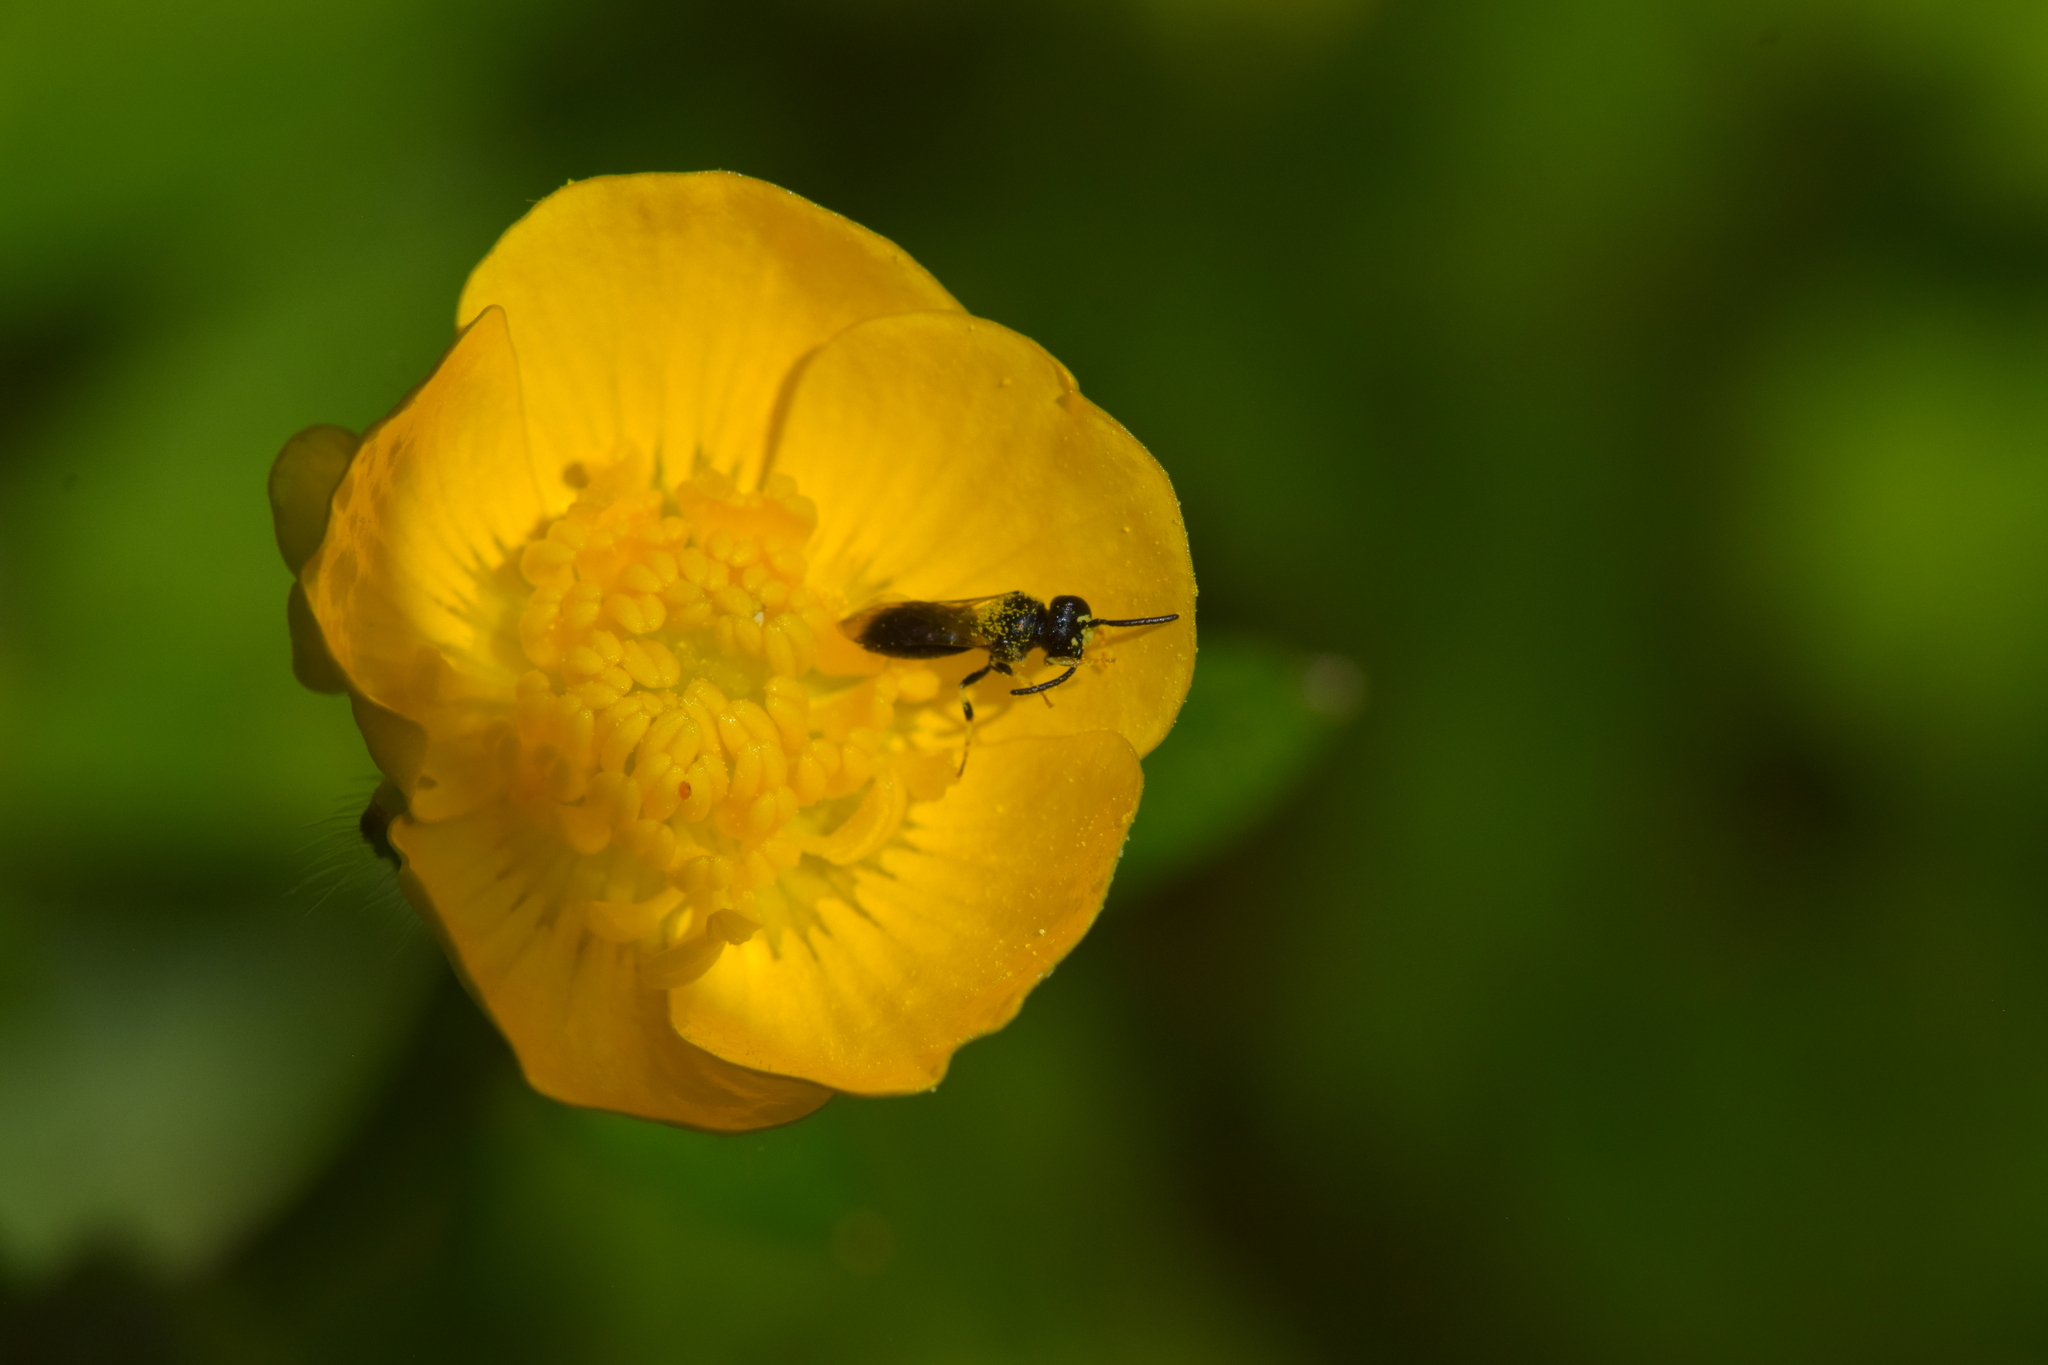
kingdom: Animalia
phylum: Arthropoda
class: Insecta
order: Hymenoptera
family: Colletidae
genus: Hylaeus
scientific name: Hylaeus mesillae
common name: Mesilla masked bee
